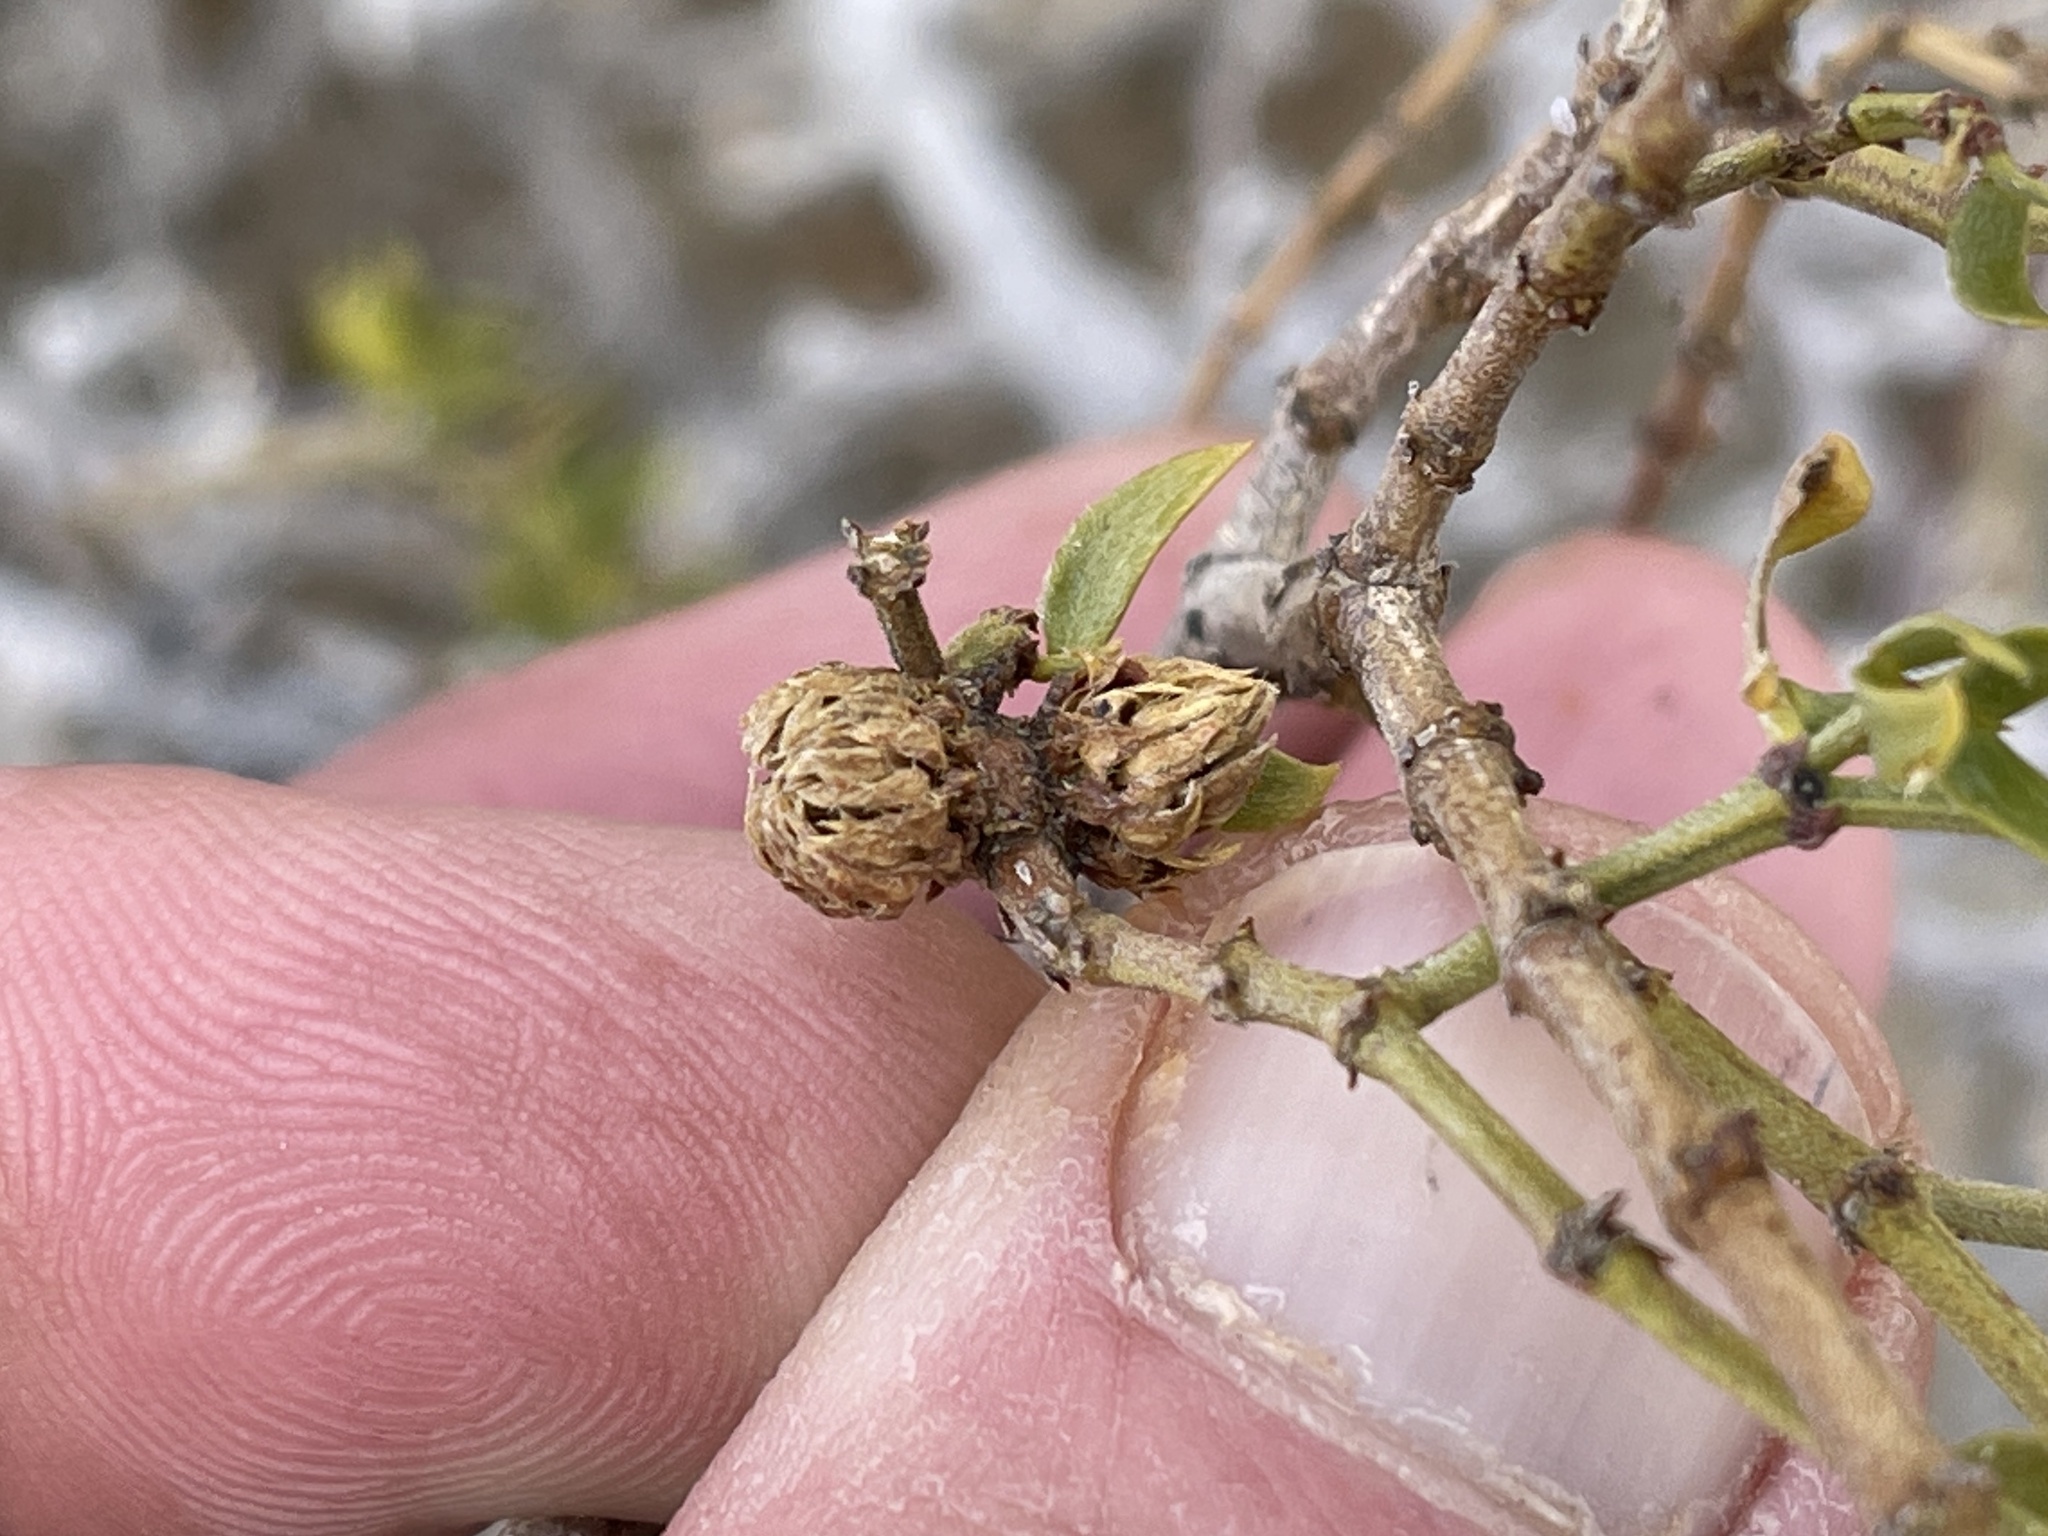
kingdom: Animalia
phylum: Arthropoda
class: Insecta
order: Diptera
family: Cecidomyiidae
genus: Asphondylia
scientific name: Asphondylia foliosa
